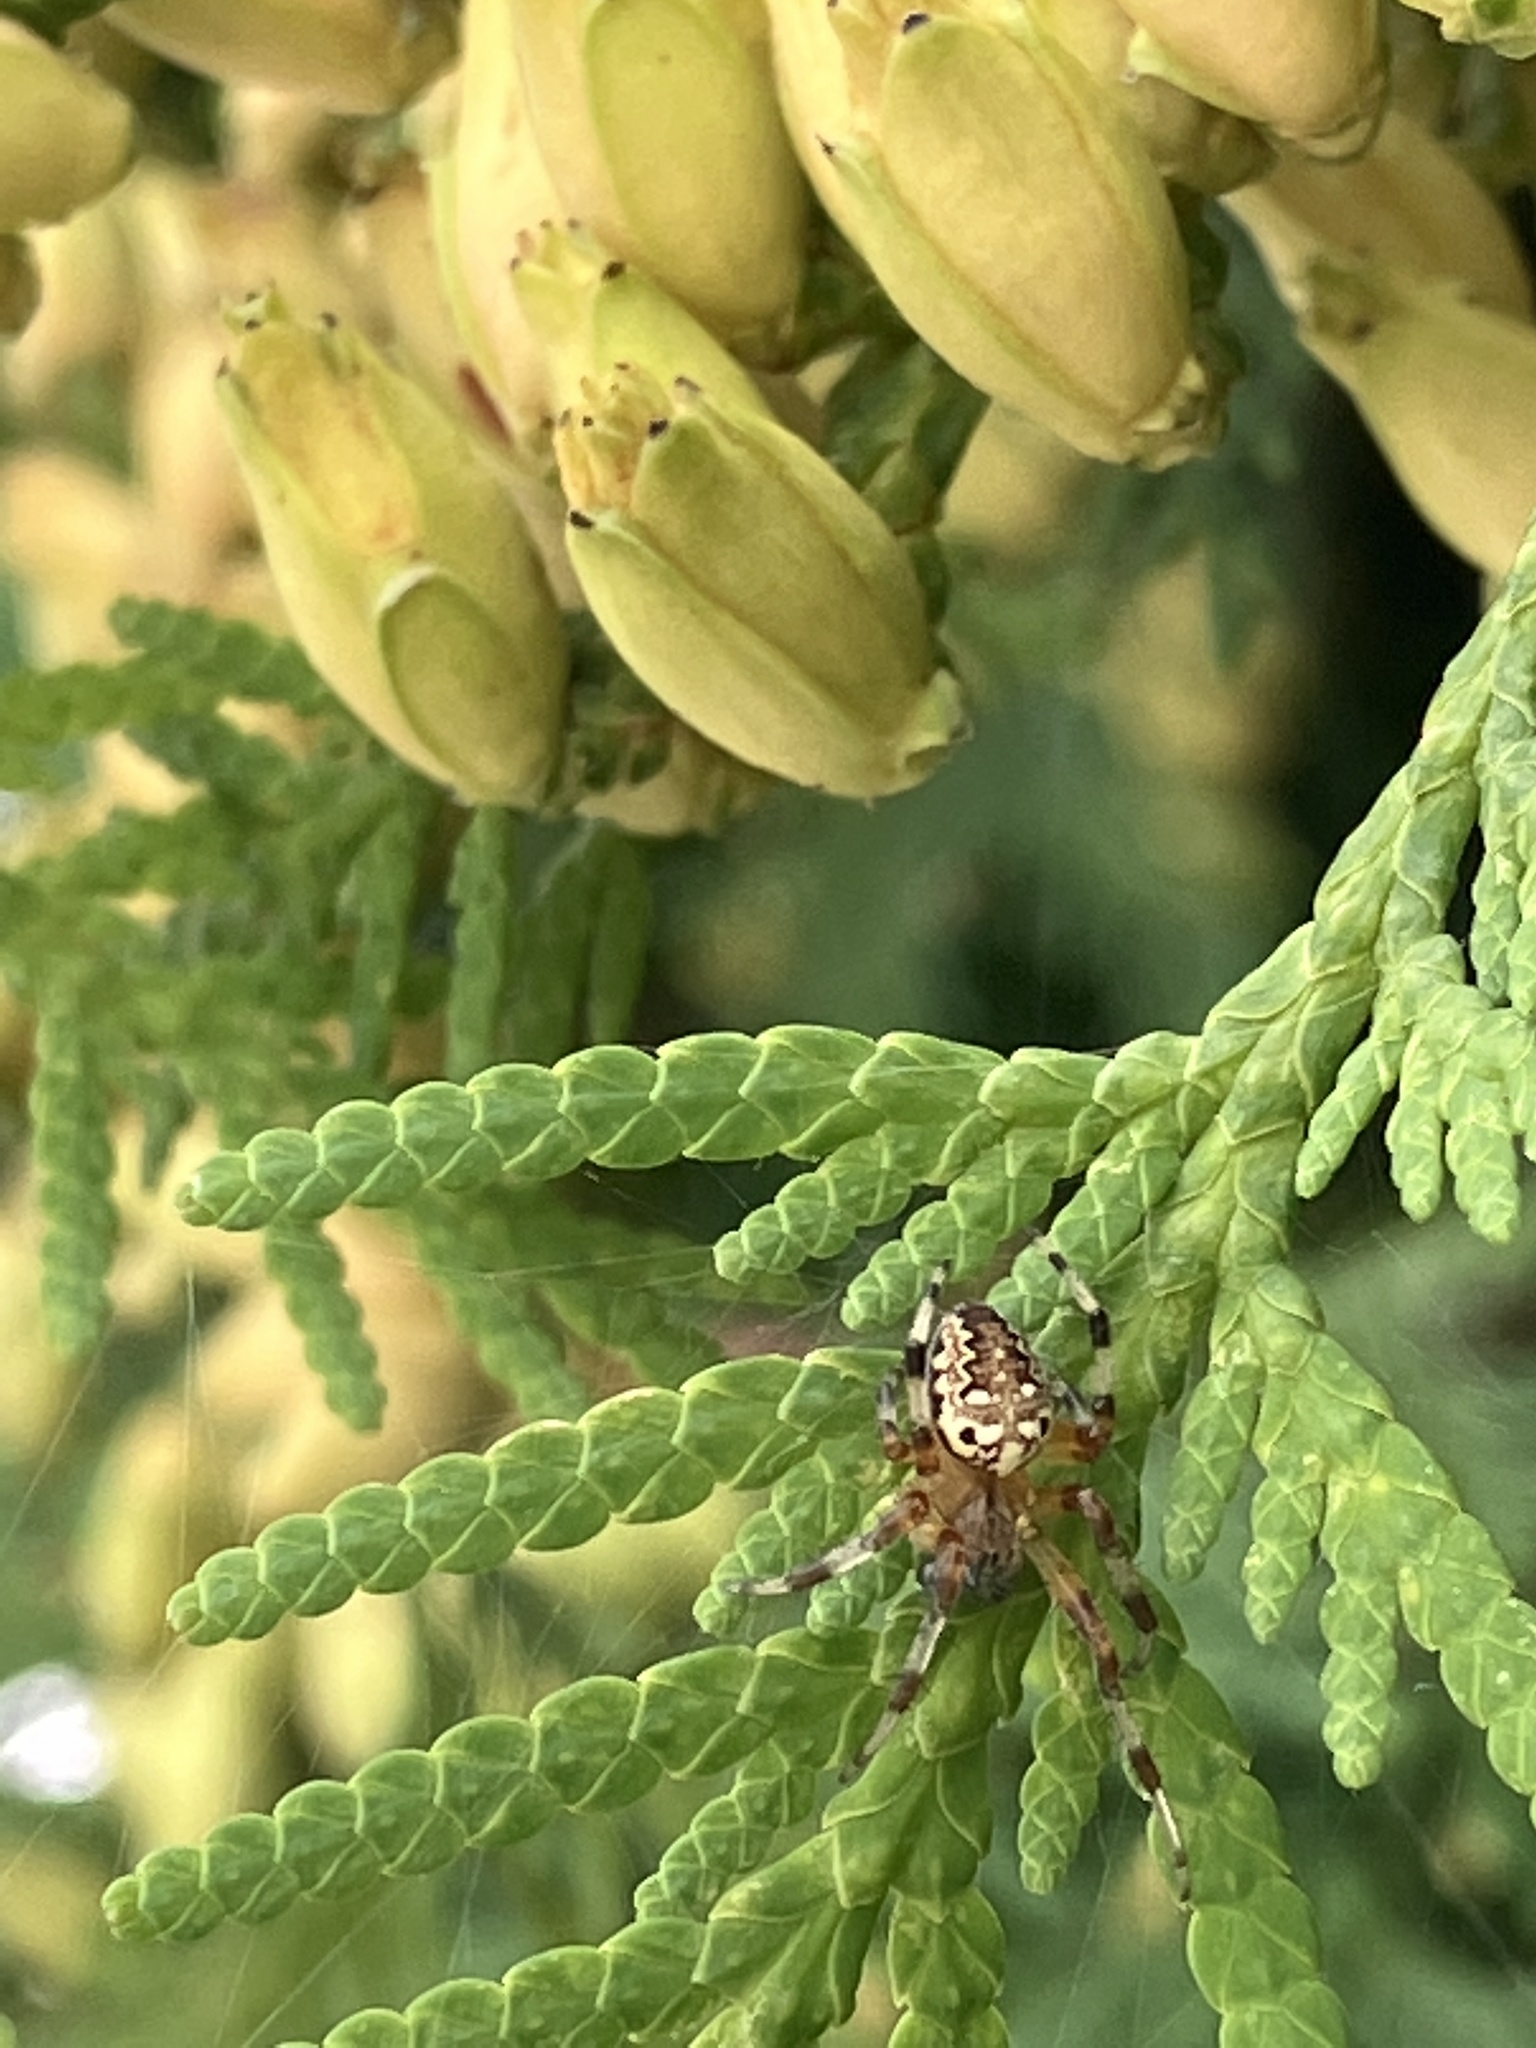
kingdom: Animalia
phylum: Arthropoda
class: Arachnida
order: Araneae
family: Araneidae
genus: Araneus
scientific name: Araneus marmoreus
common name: Marbled orbweaver
